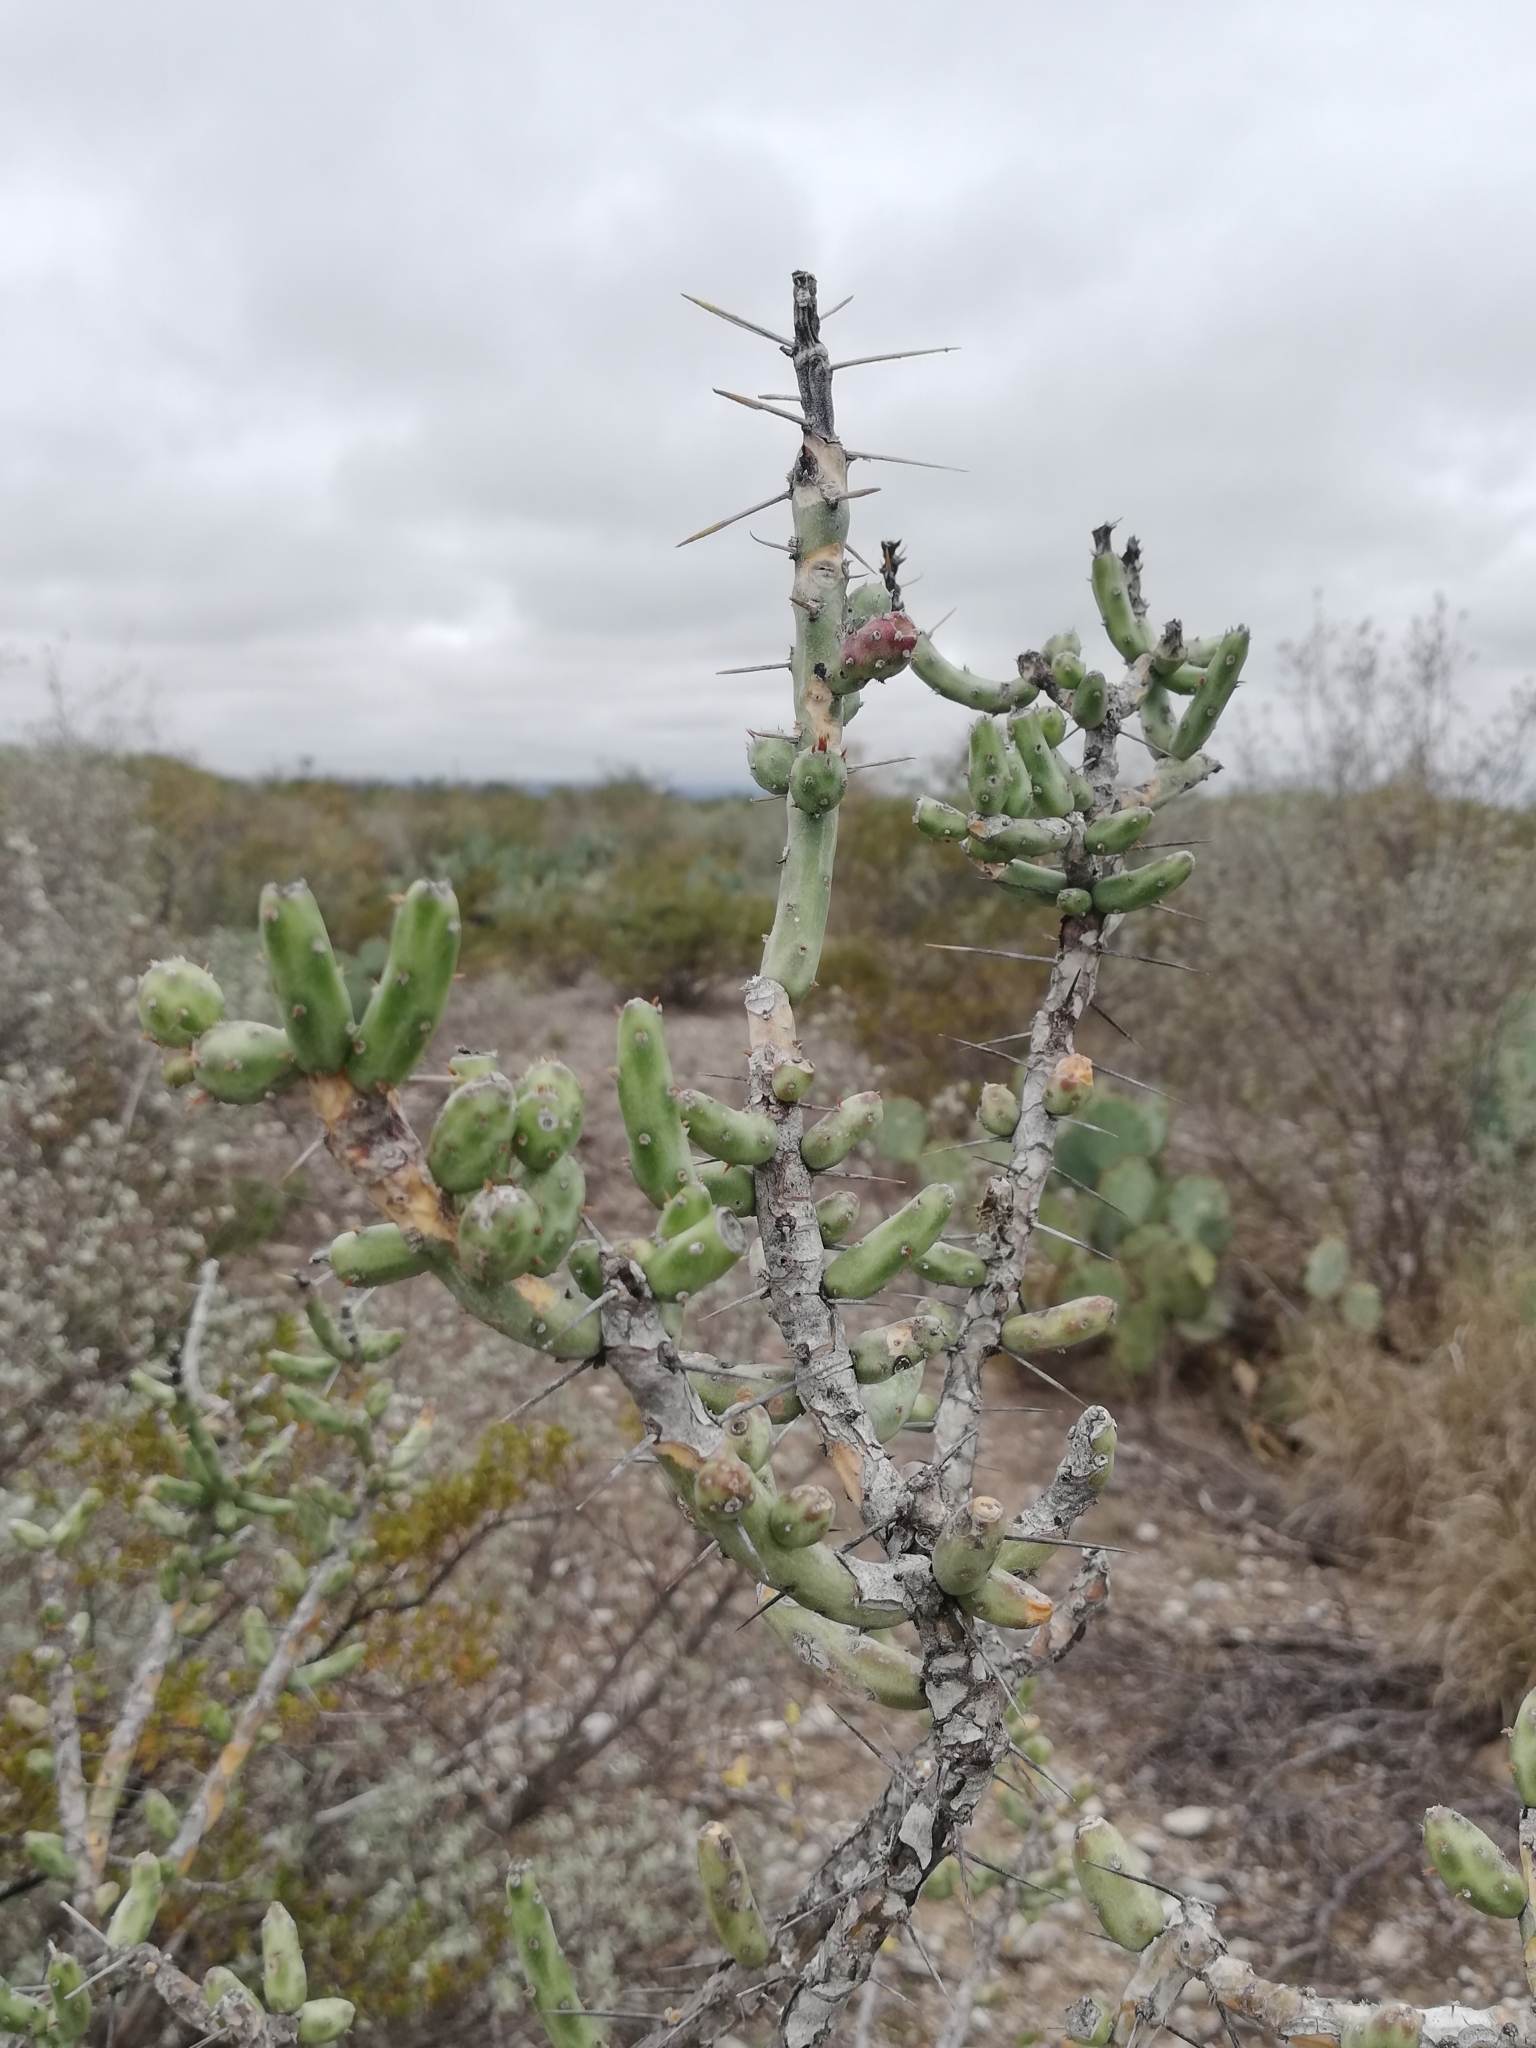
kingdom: Plantae
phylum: Tracheophyta
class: Magnoliopsida
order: Caryophyllales
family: Cactaceae
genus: Cylindropuntia
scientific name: Cylindropuntia leptocaulis
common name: Christmas cactus
